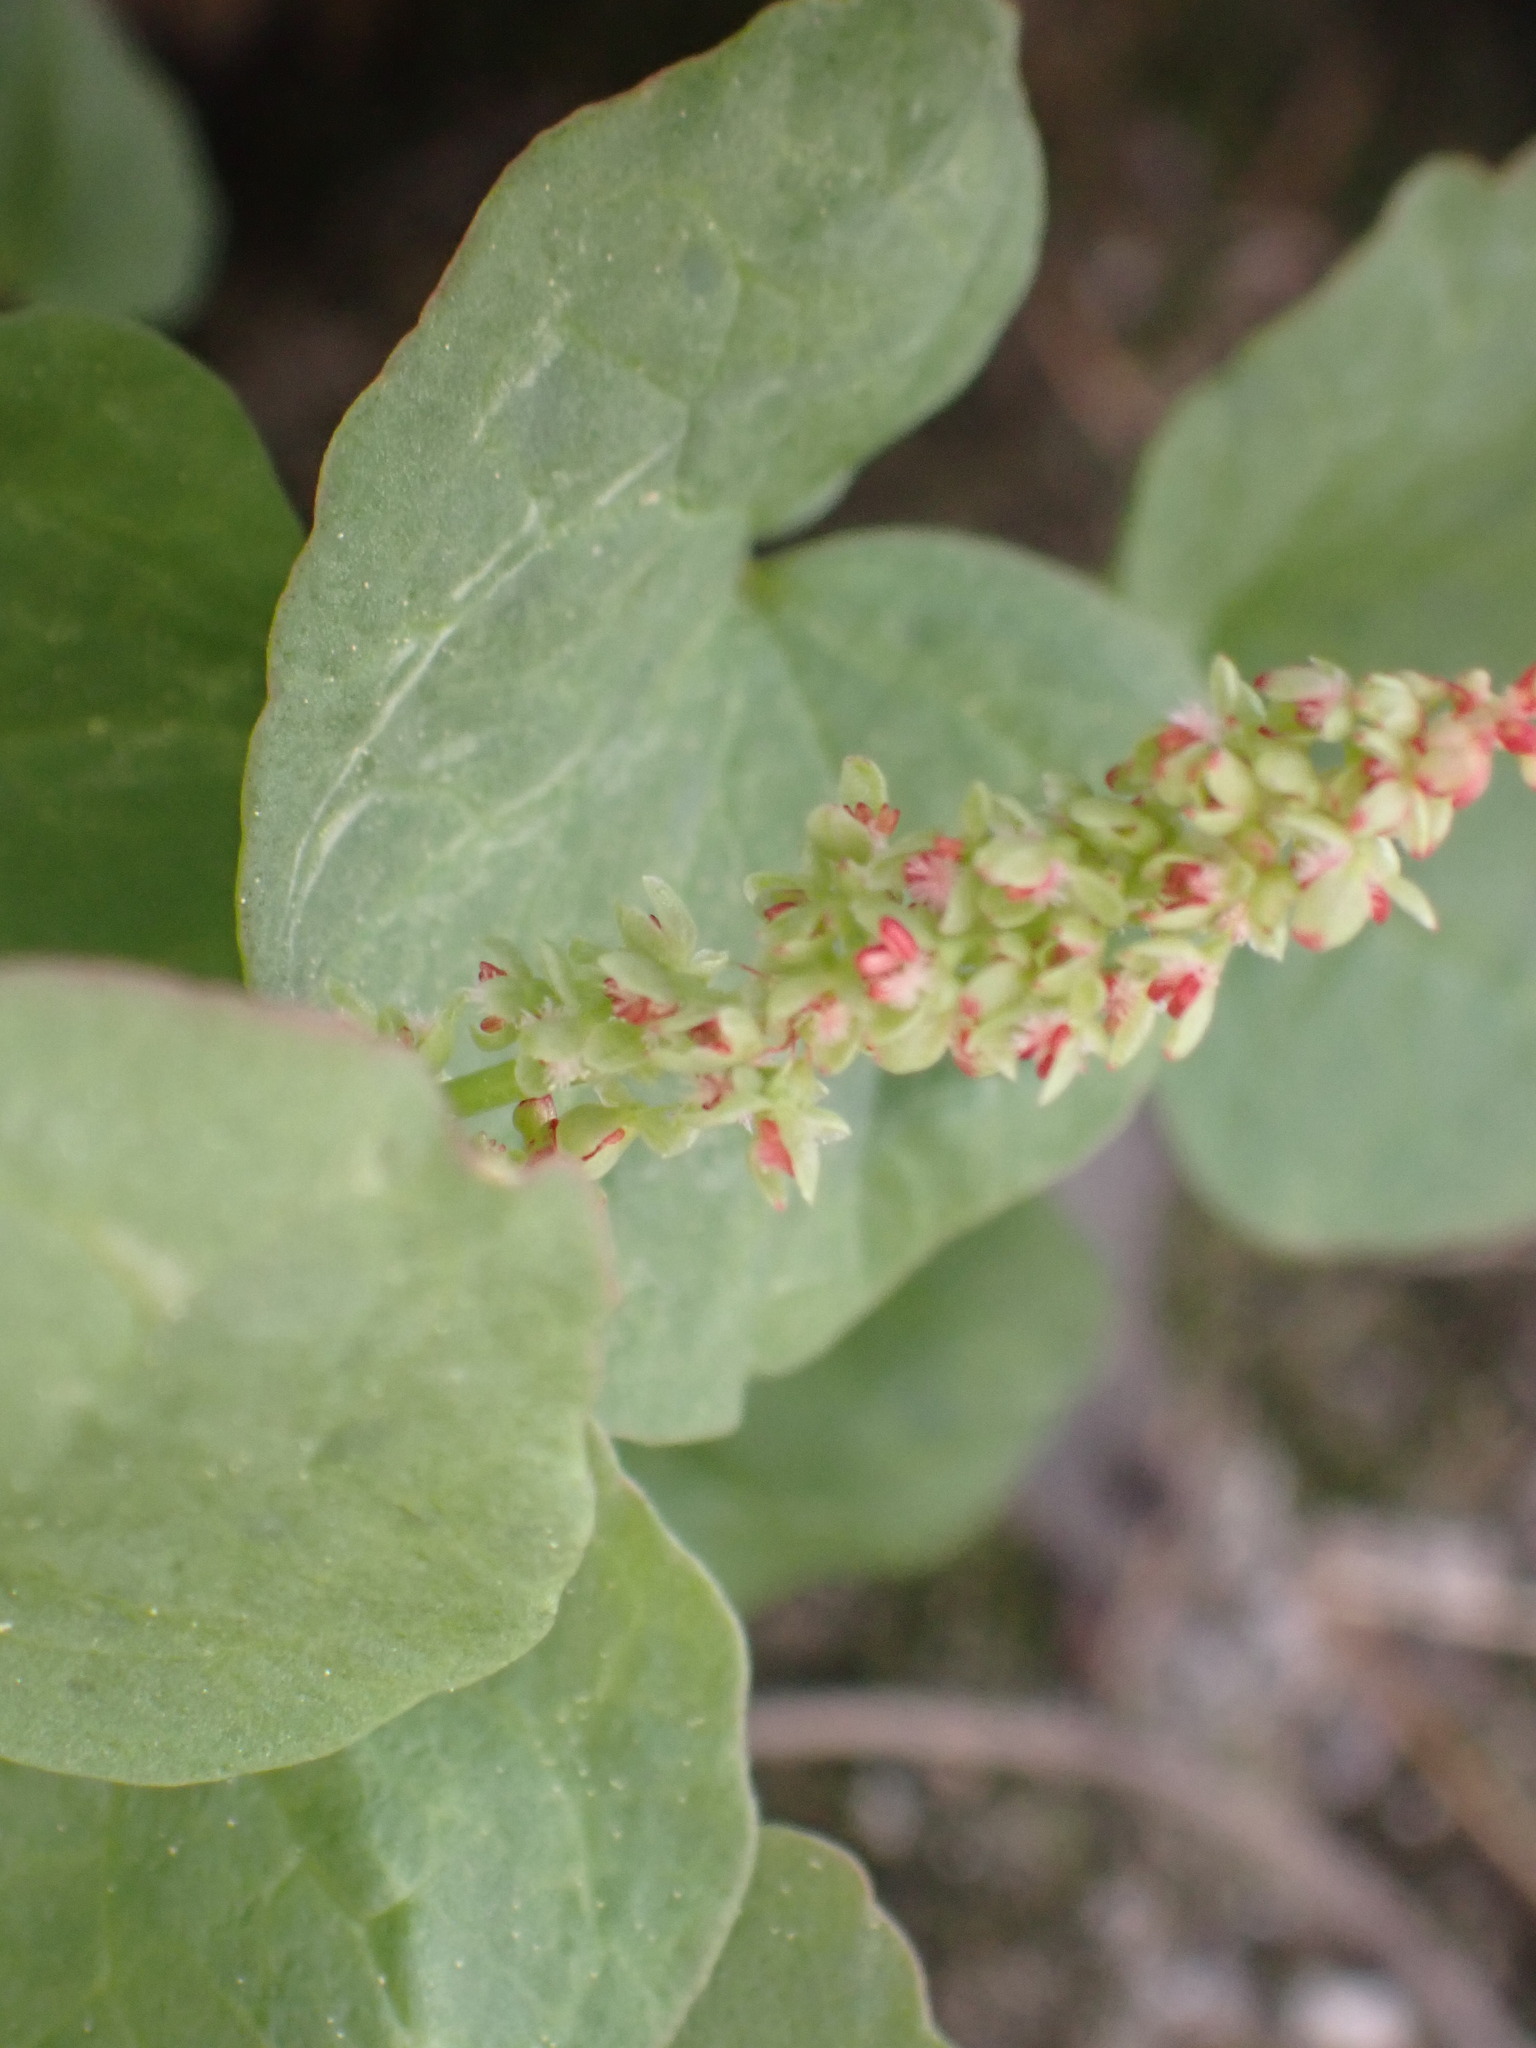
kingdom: Plantae
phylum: Tracheophyta
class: Magnoliopsida
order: Caryophyllales
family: Polygonaceae
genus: Oxyria
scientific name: Oxyria digyna
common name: Alpine mountain-sorrel
